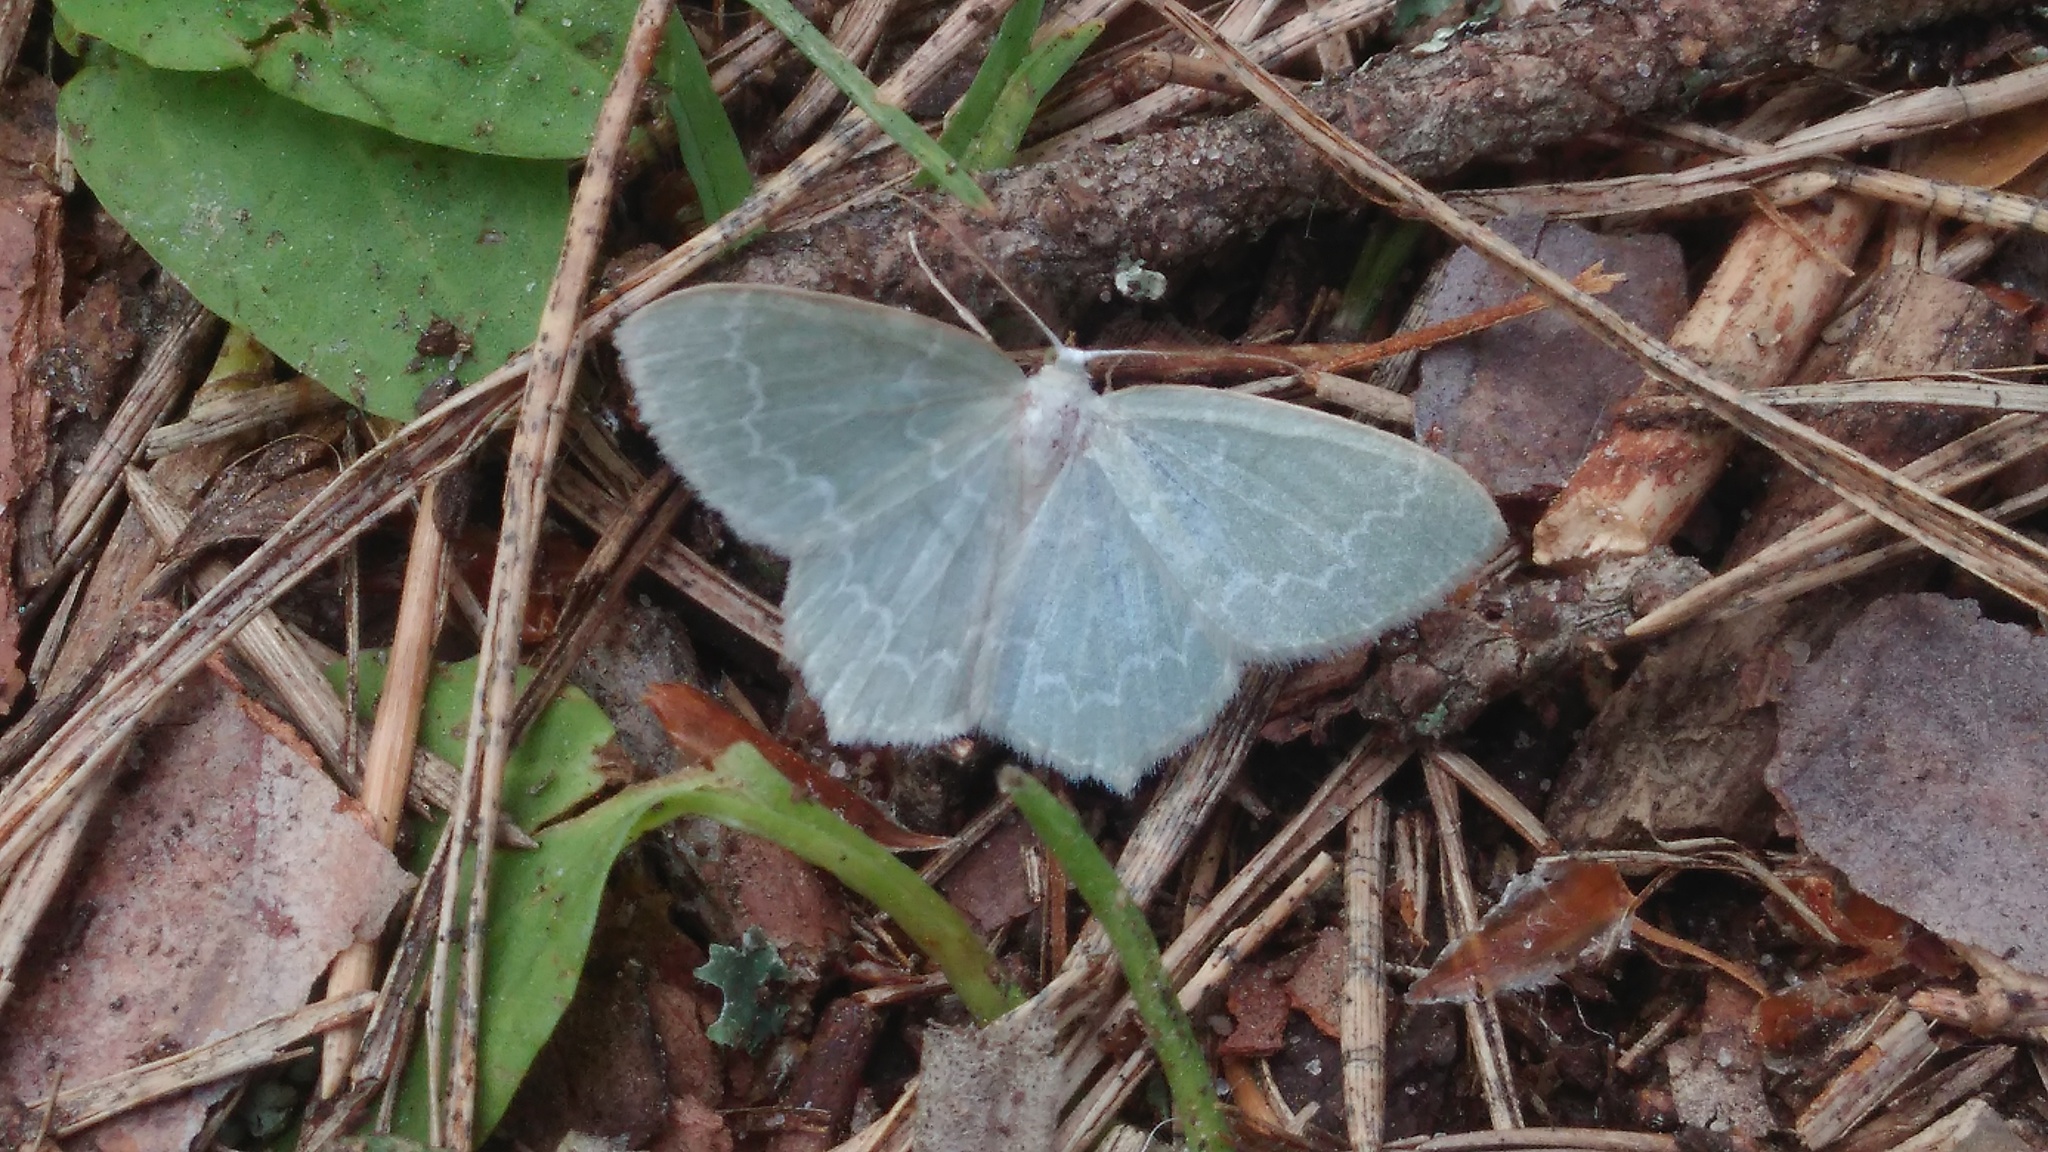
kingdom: Animalia
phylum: Arthropoda
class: Insecta
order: Lepidoptera
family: Geometridae
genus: Jodis
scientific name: Jodis putata
